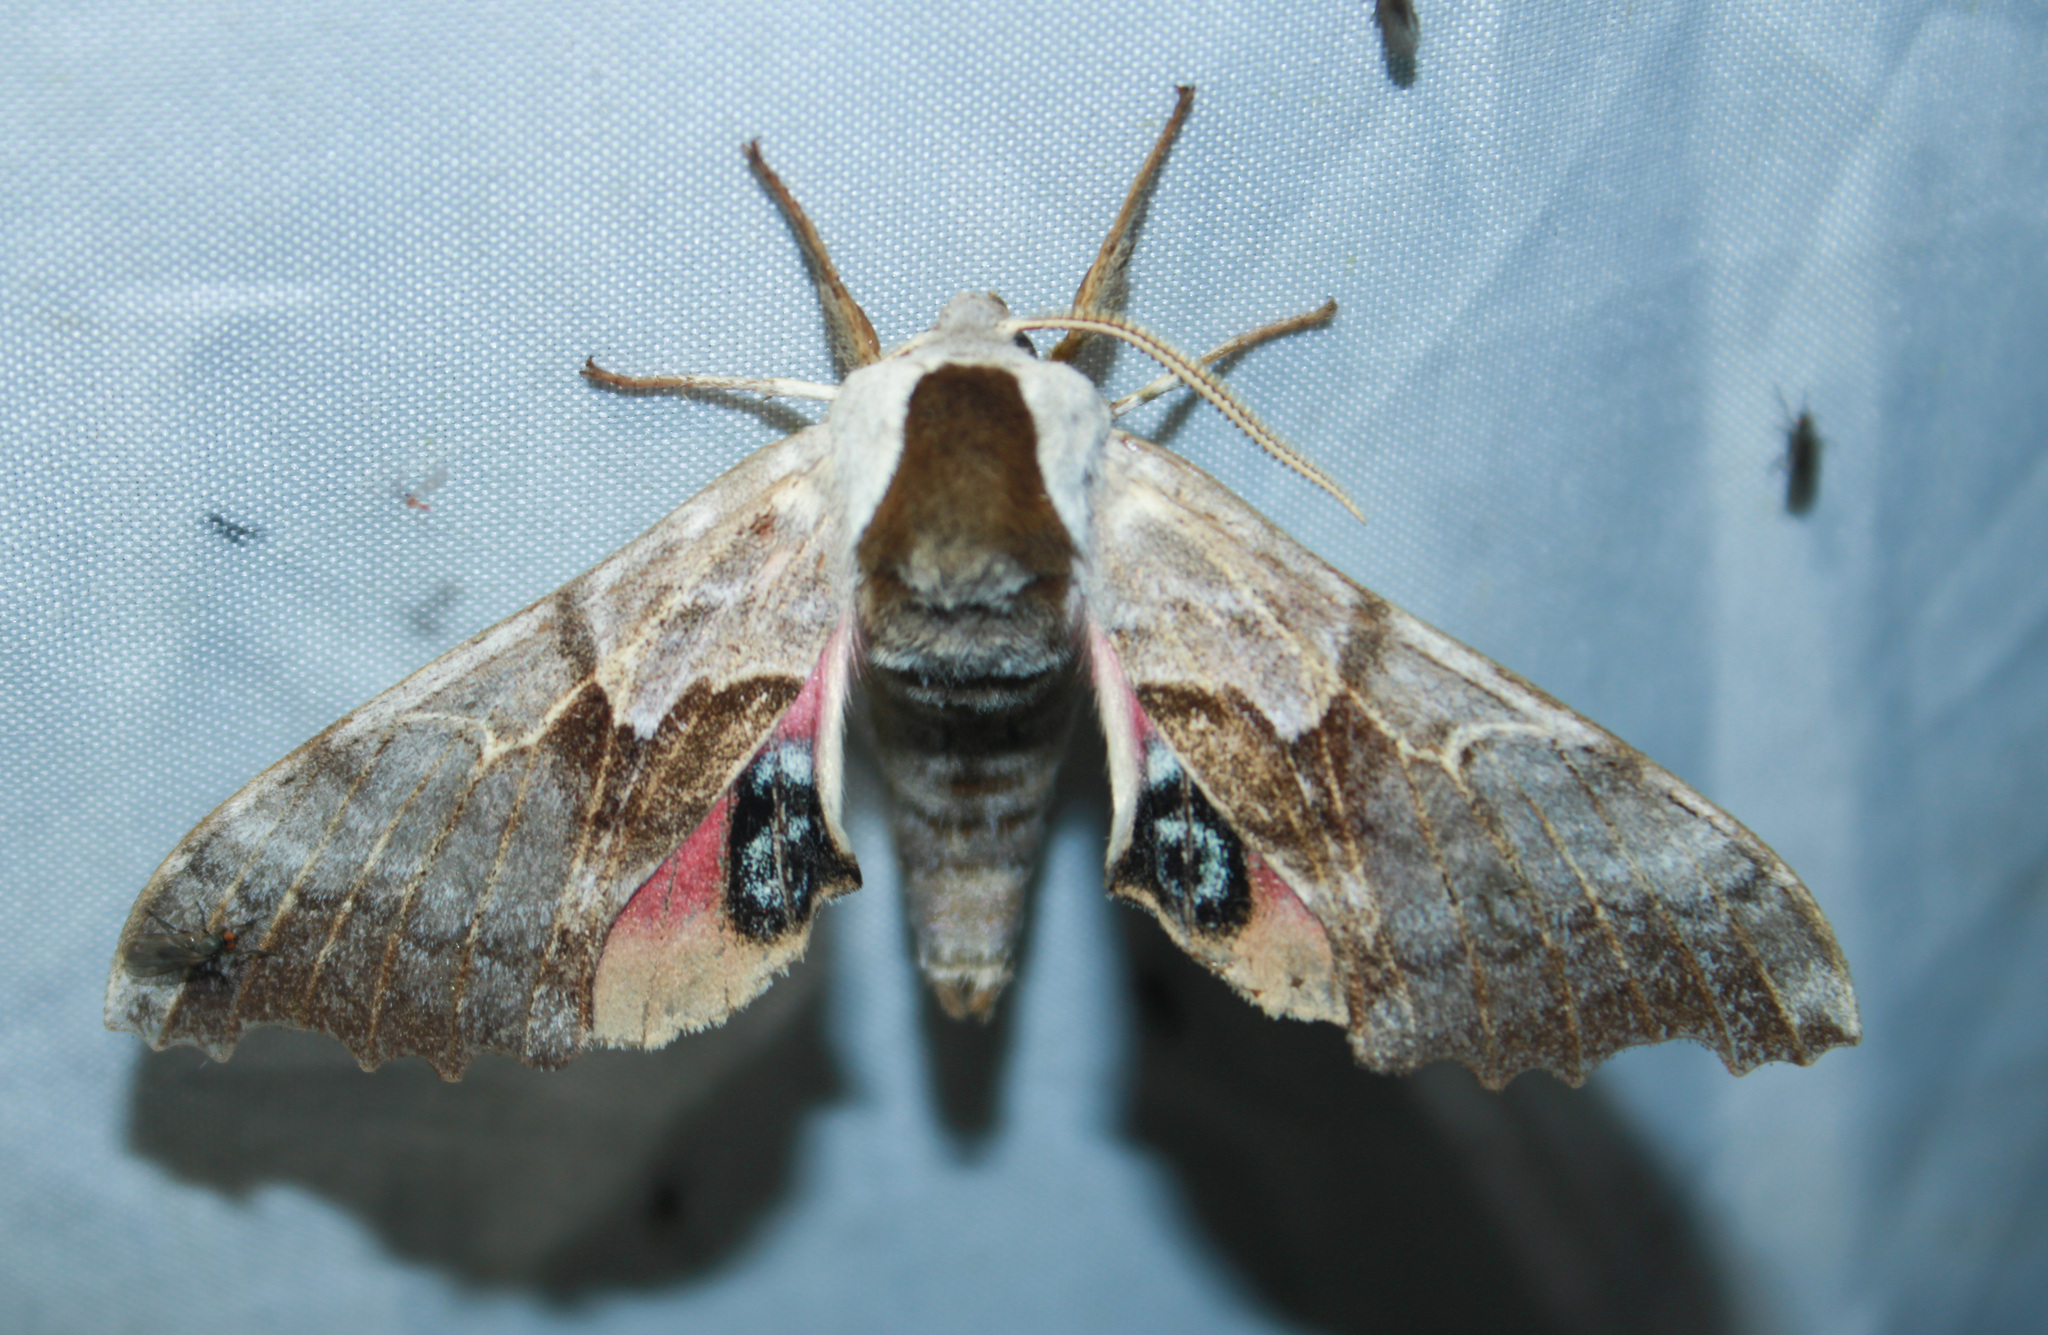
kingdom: Animalia
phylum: Arthropoda
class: Insecta
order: Lepidoptera
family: Sphingidae
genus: Smerinthus
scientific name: Smerinthus cerisyi
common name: Cerisy's sphinx moth
